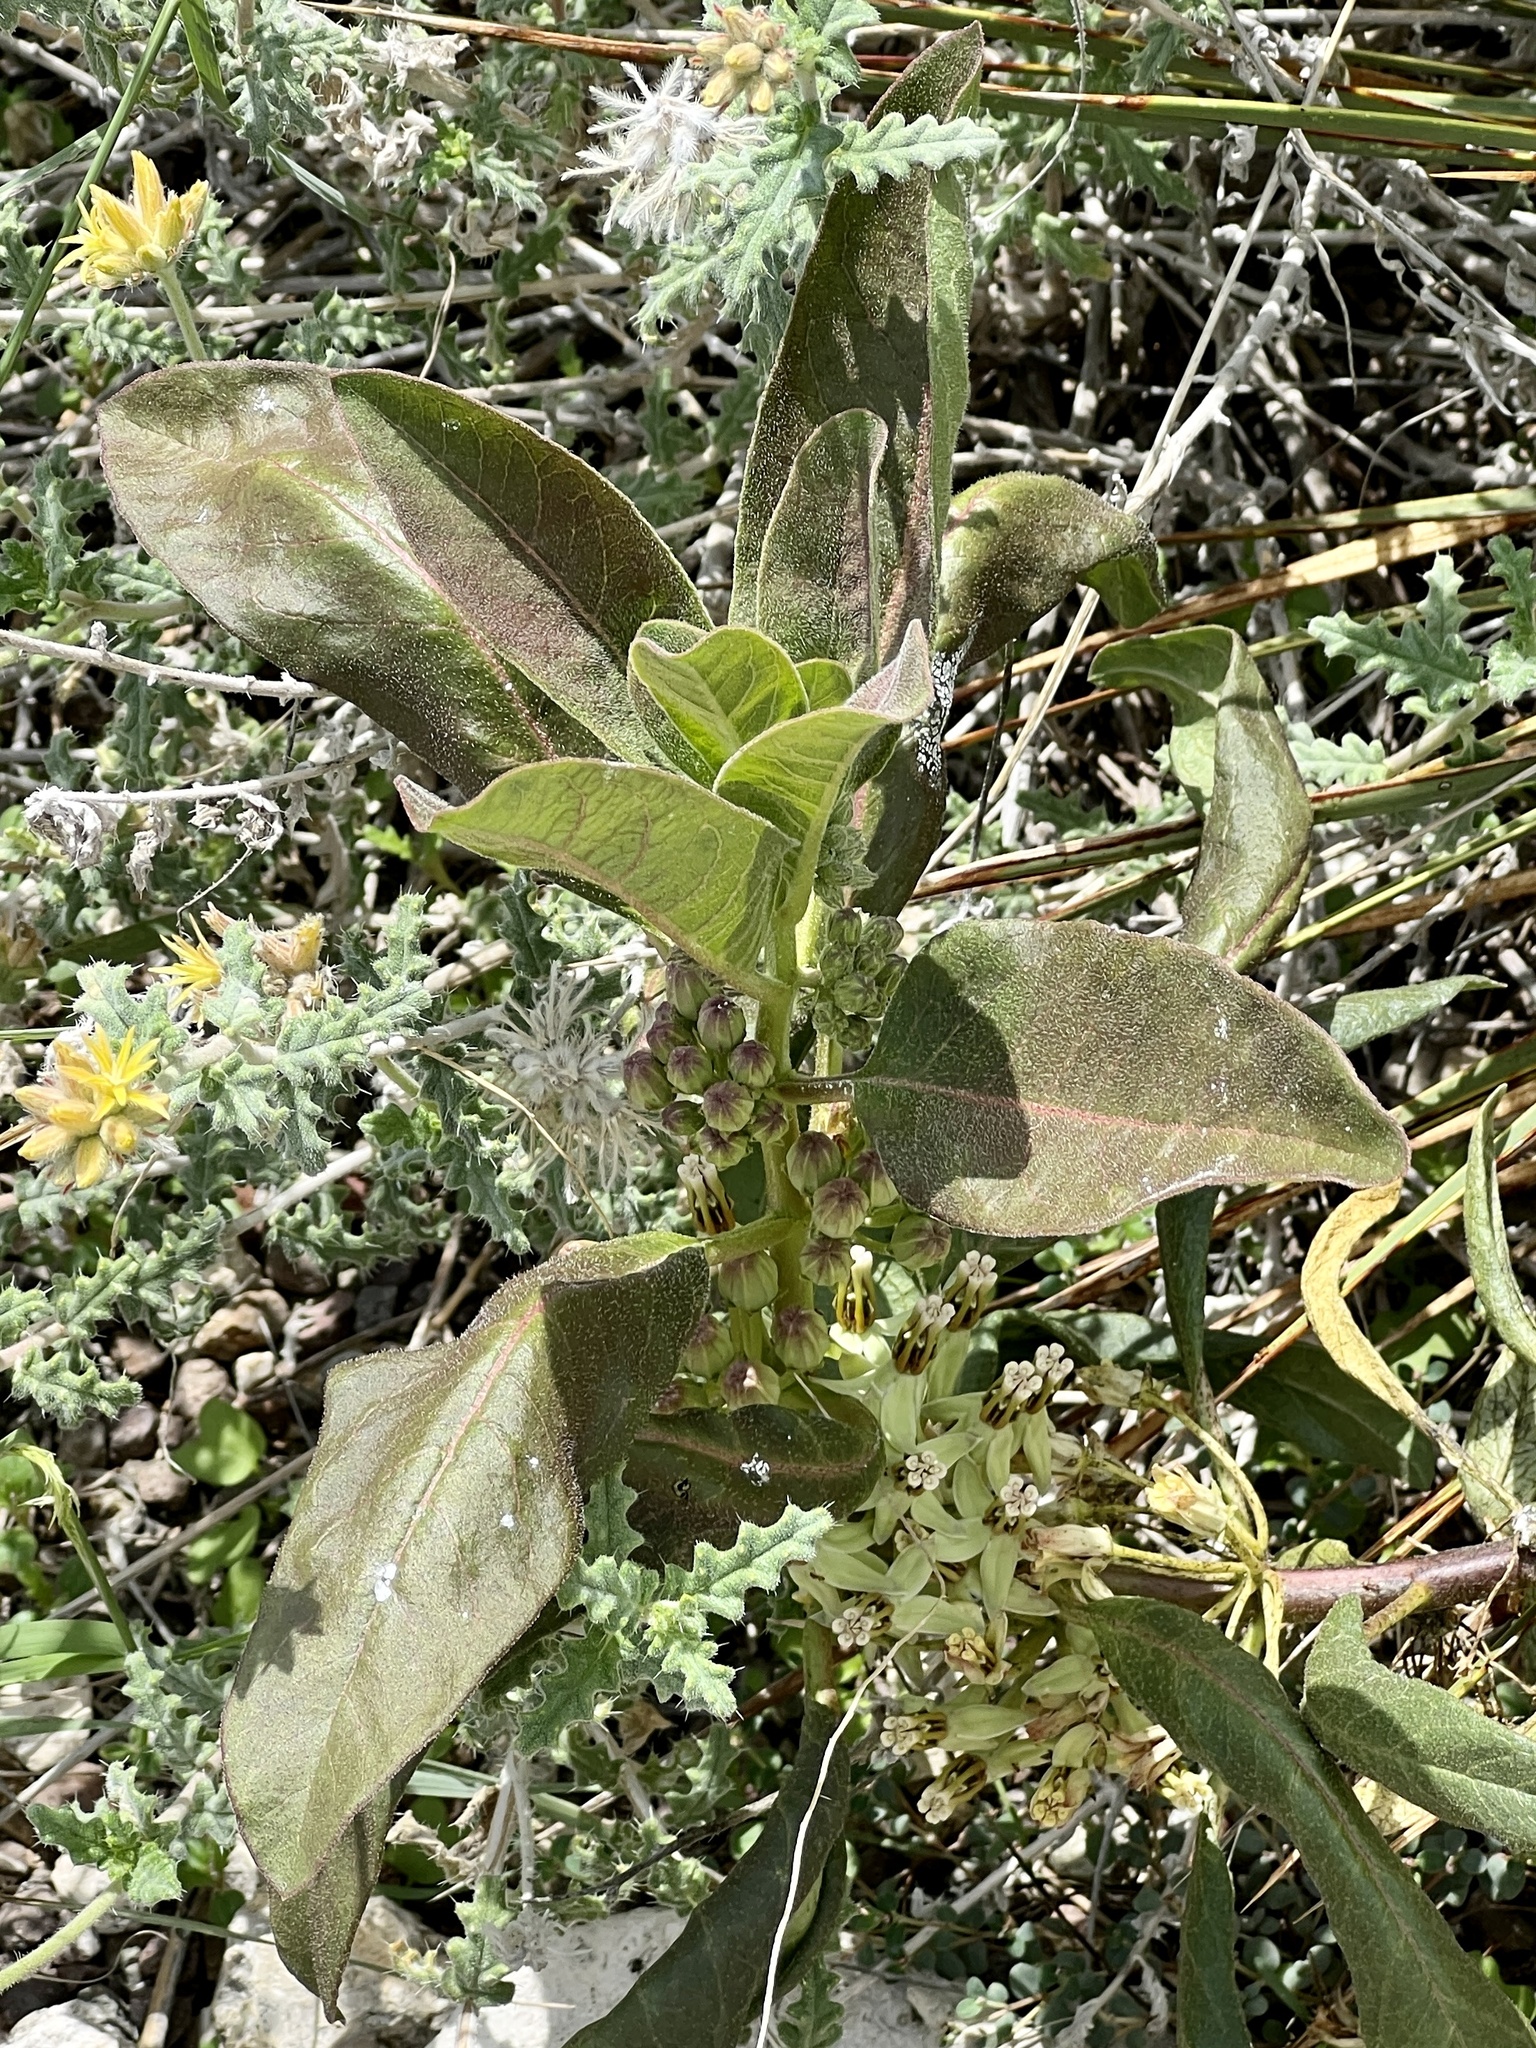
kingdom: Plantae
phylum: Tracheophyta
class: Magnoliopsida
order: Gentianales
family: Apocynaceae
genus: Asclepias
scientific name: Asclepias oenotheroides
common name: Zizotes milkweed
